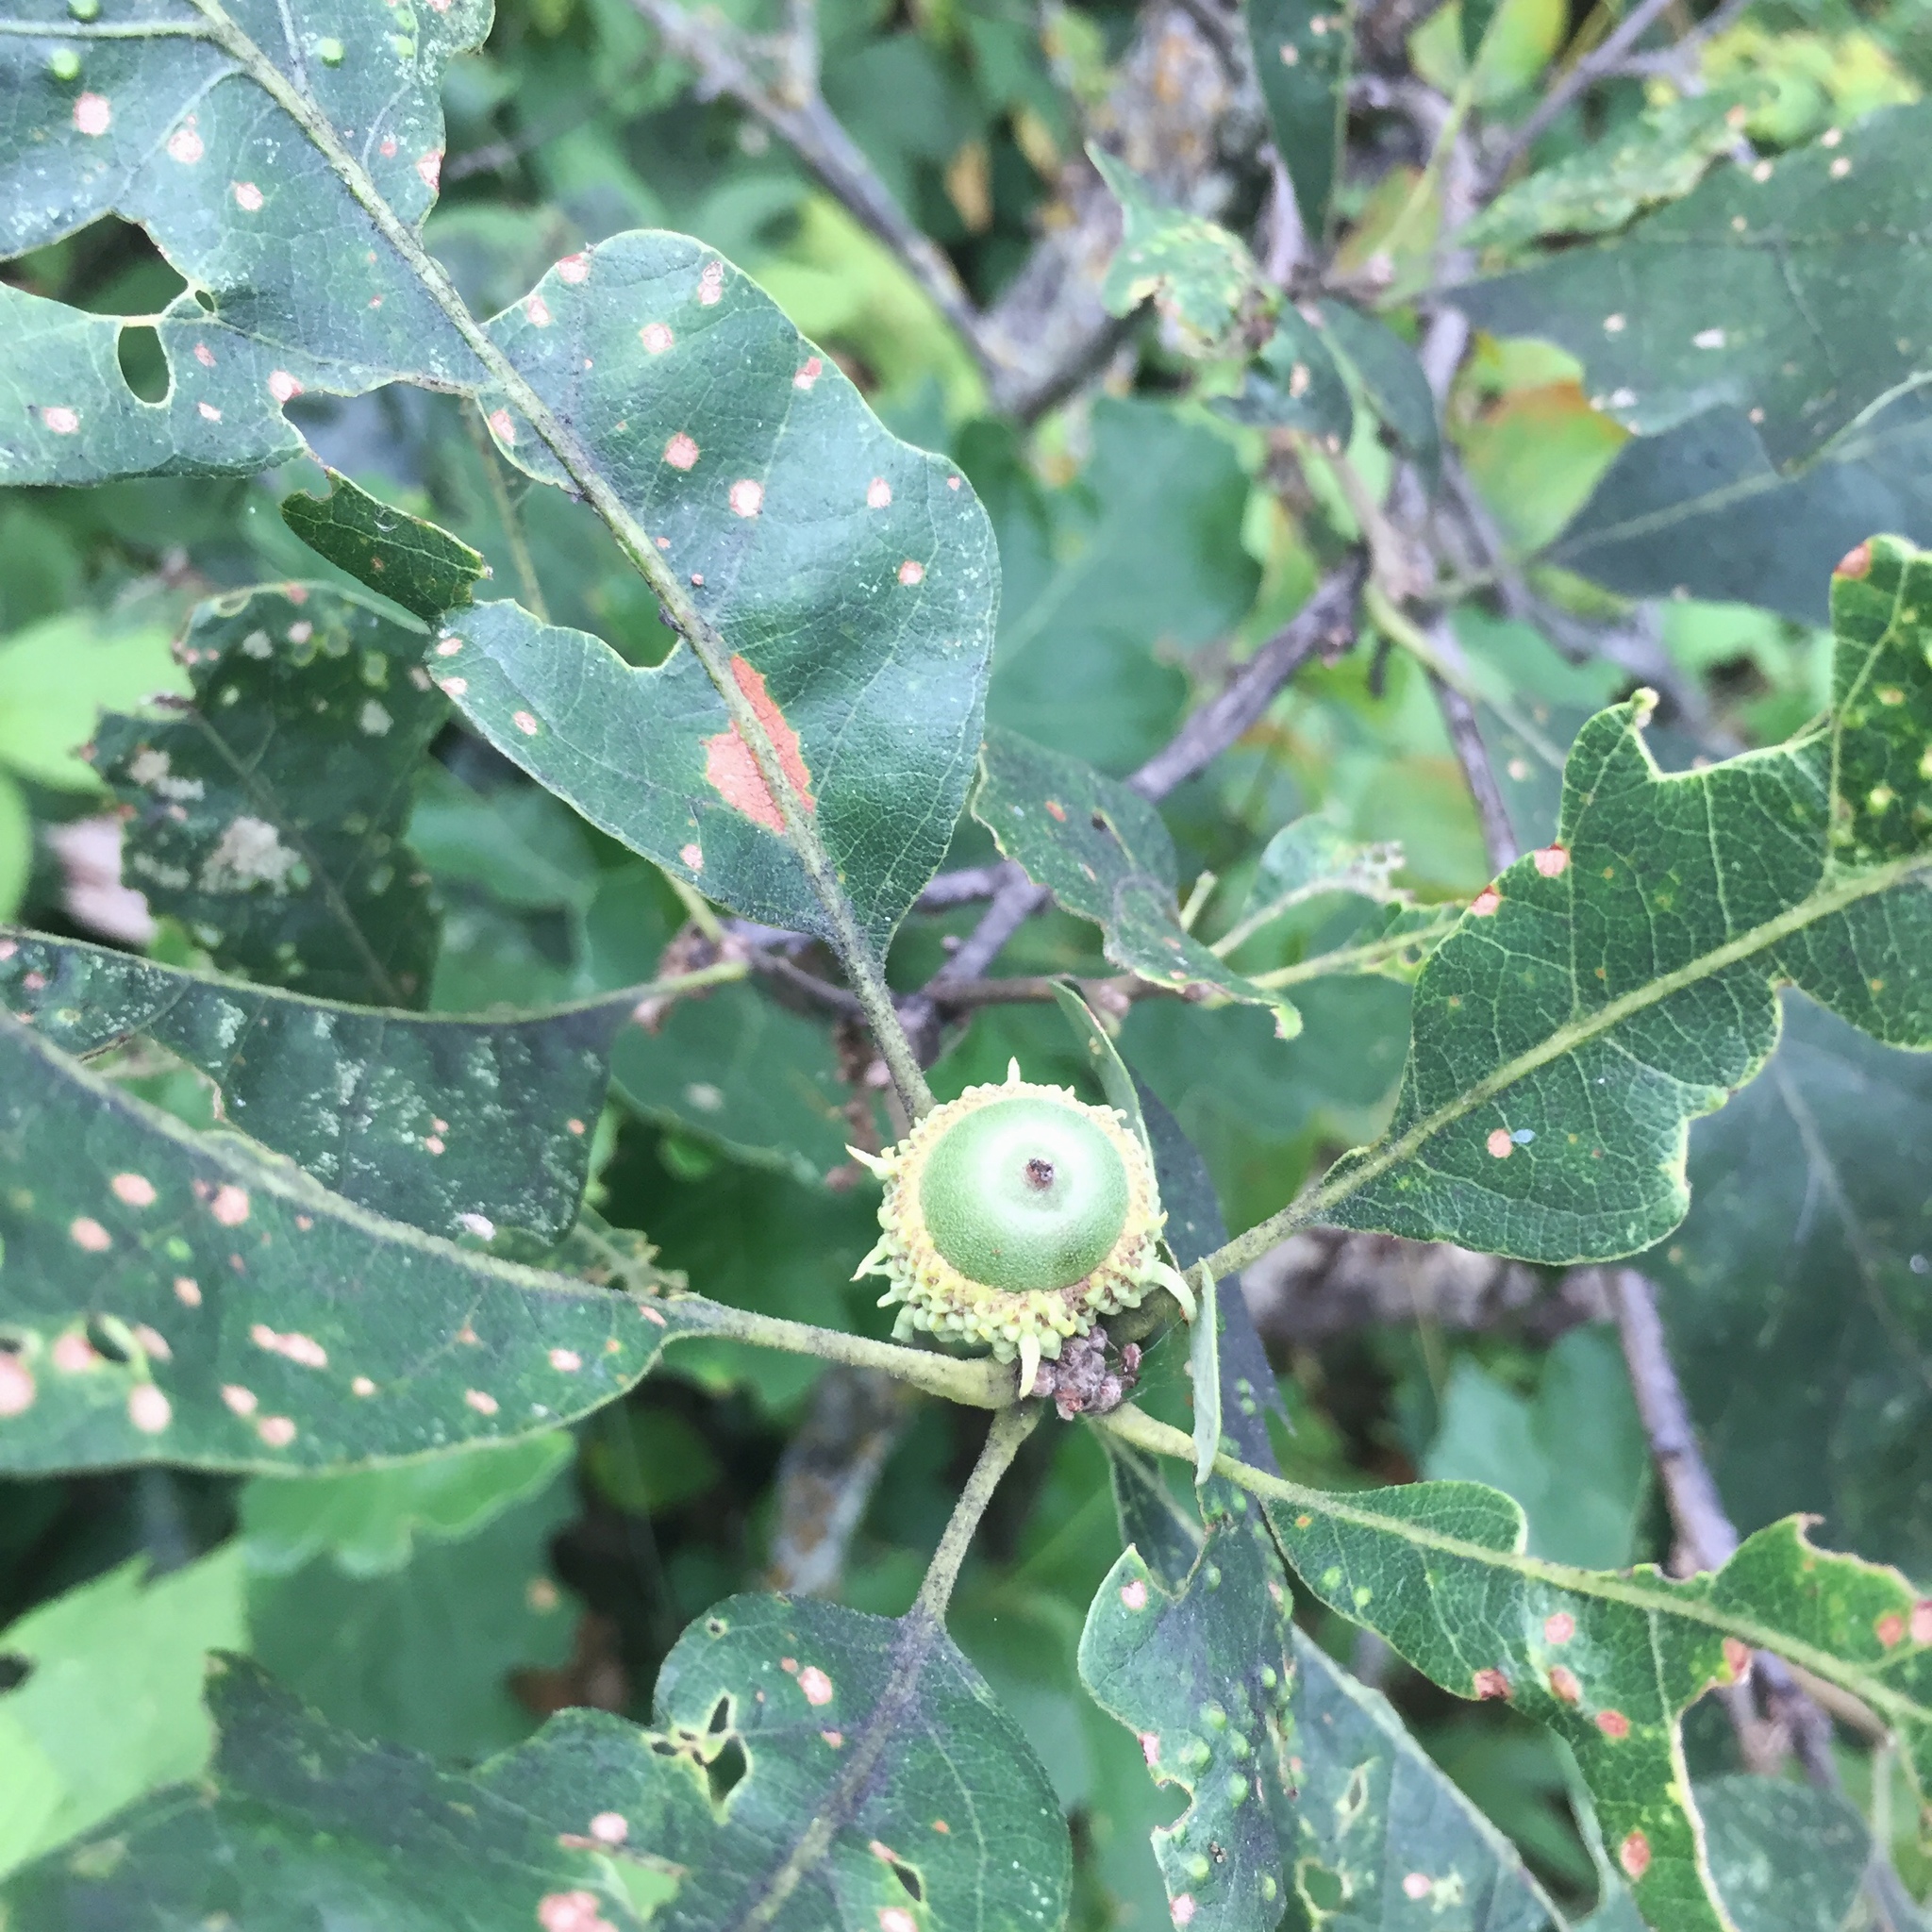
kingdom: Plantae
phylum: Tracheophyta
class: Magnoliopsida
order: Fagales
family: Fagaceae
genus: Quercus
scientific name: Quercus macrocarpa
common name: Bur oak
